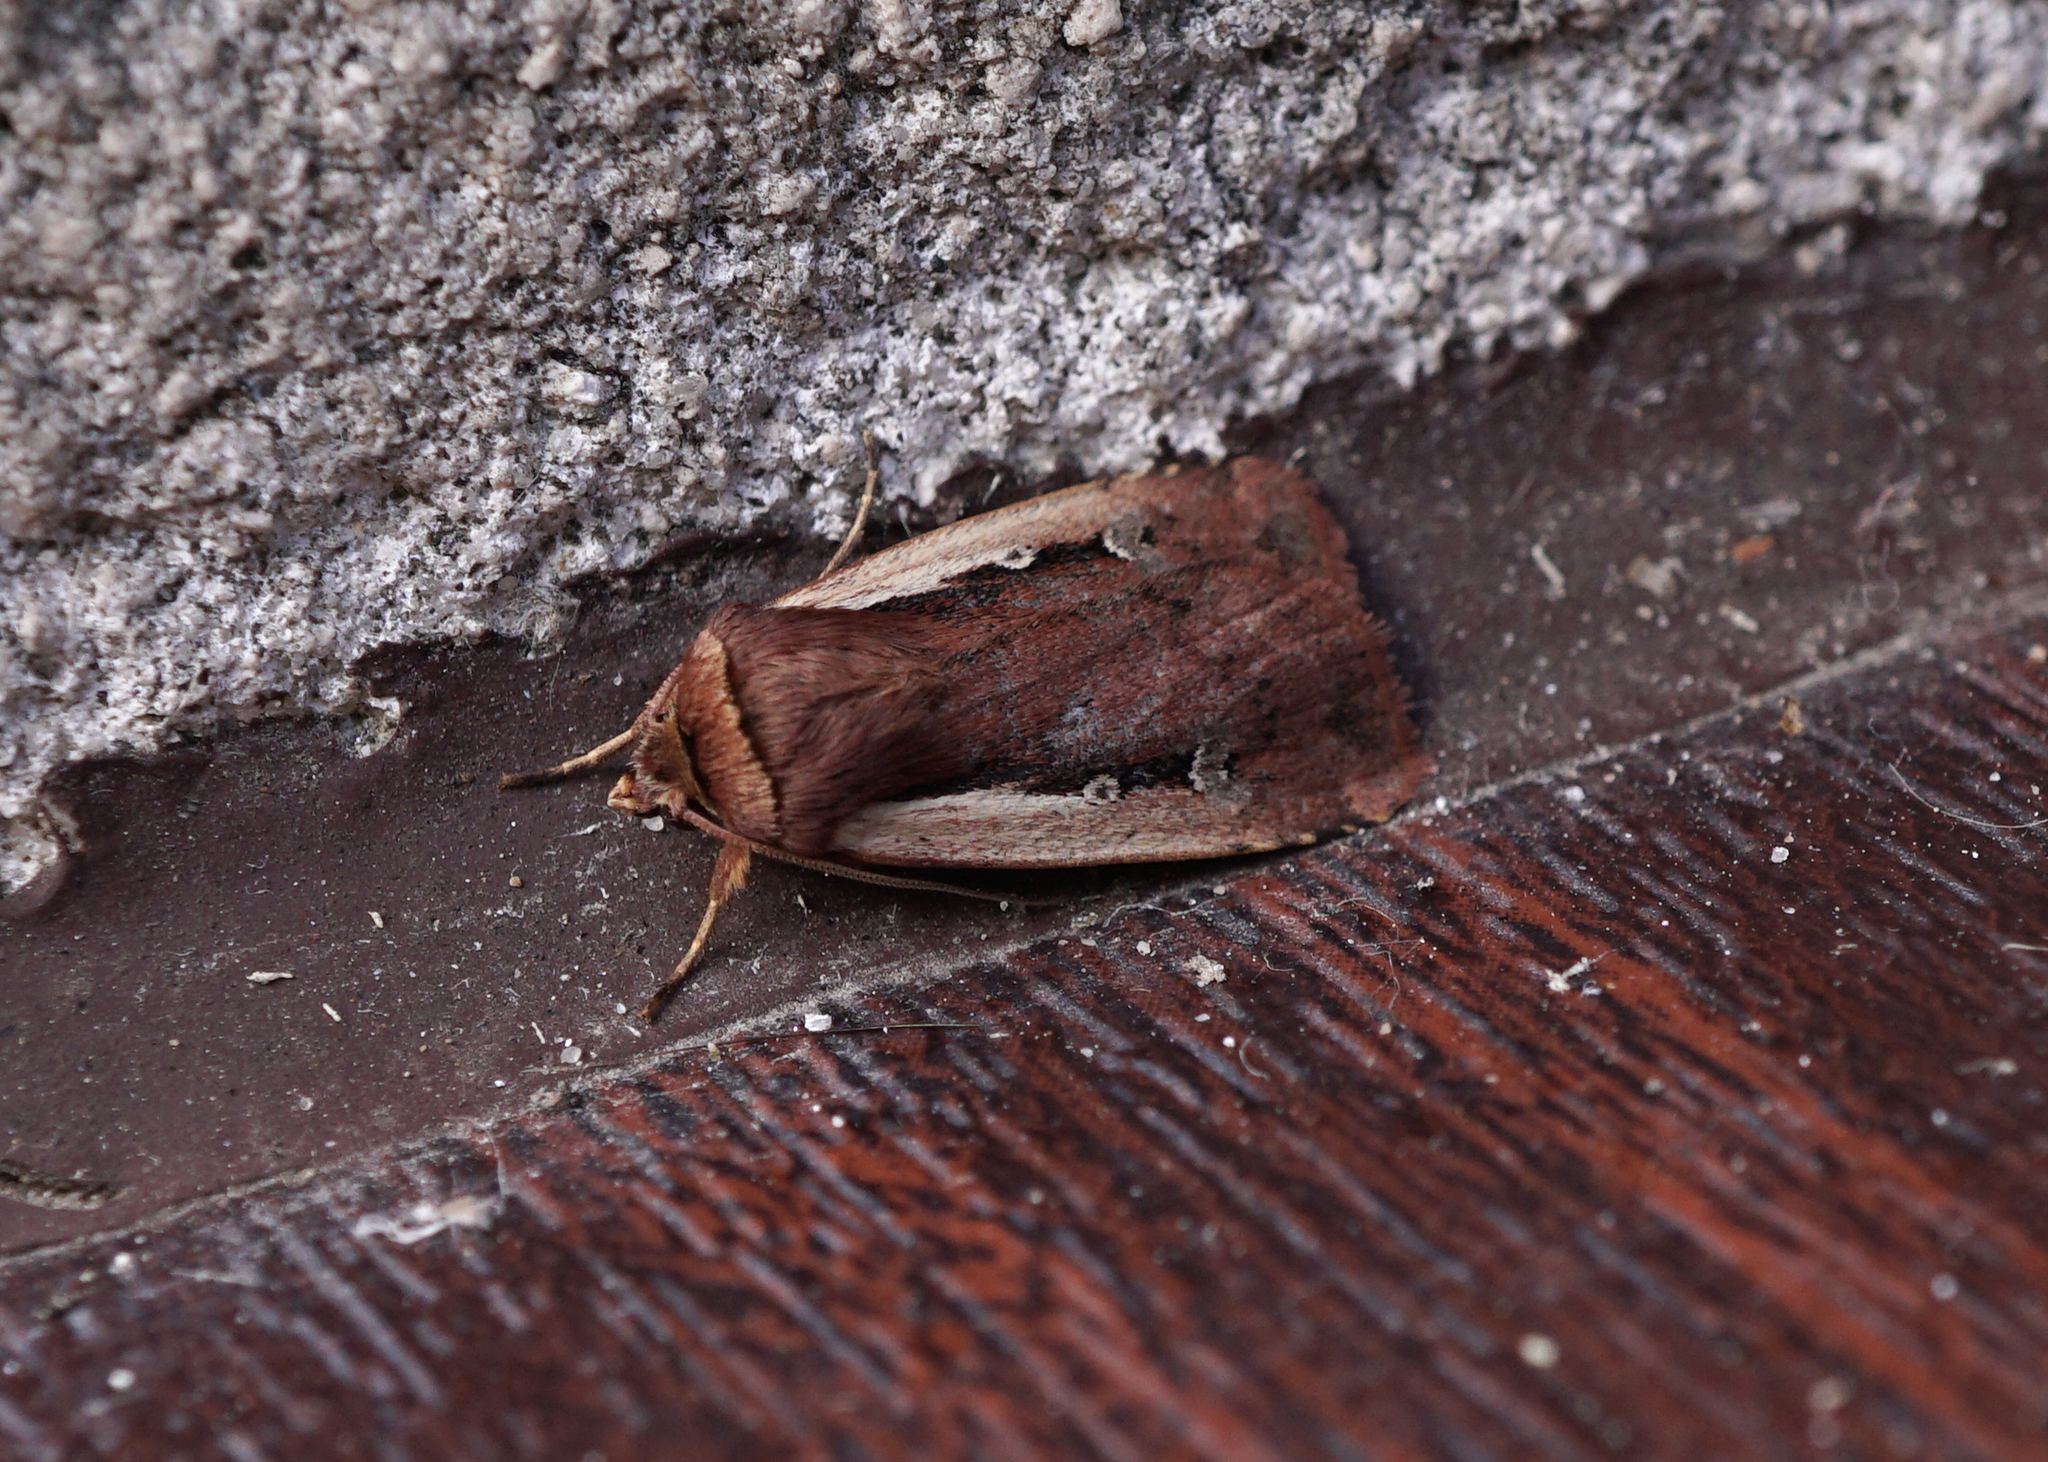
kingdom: Animalia
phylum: Arthropoda
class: Insecta
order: Lepidoptera
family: Noctuidae
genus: Ochropleura
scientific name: Ochropleura plecta
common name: Flame shoulder
